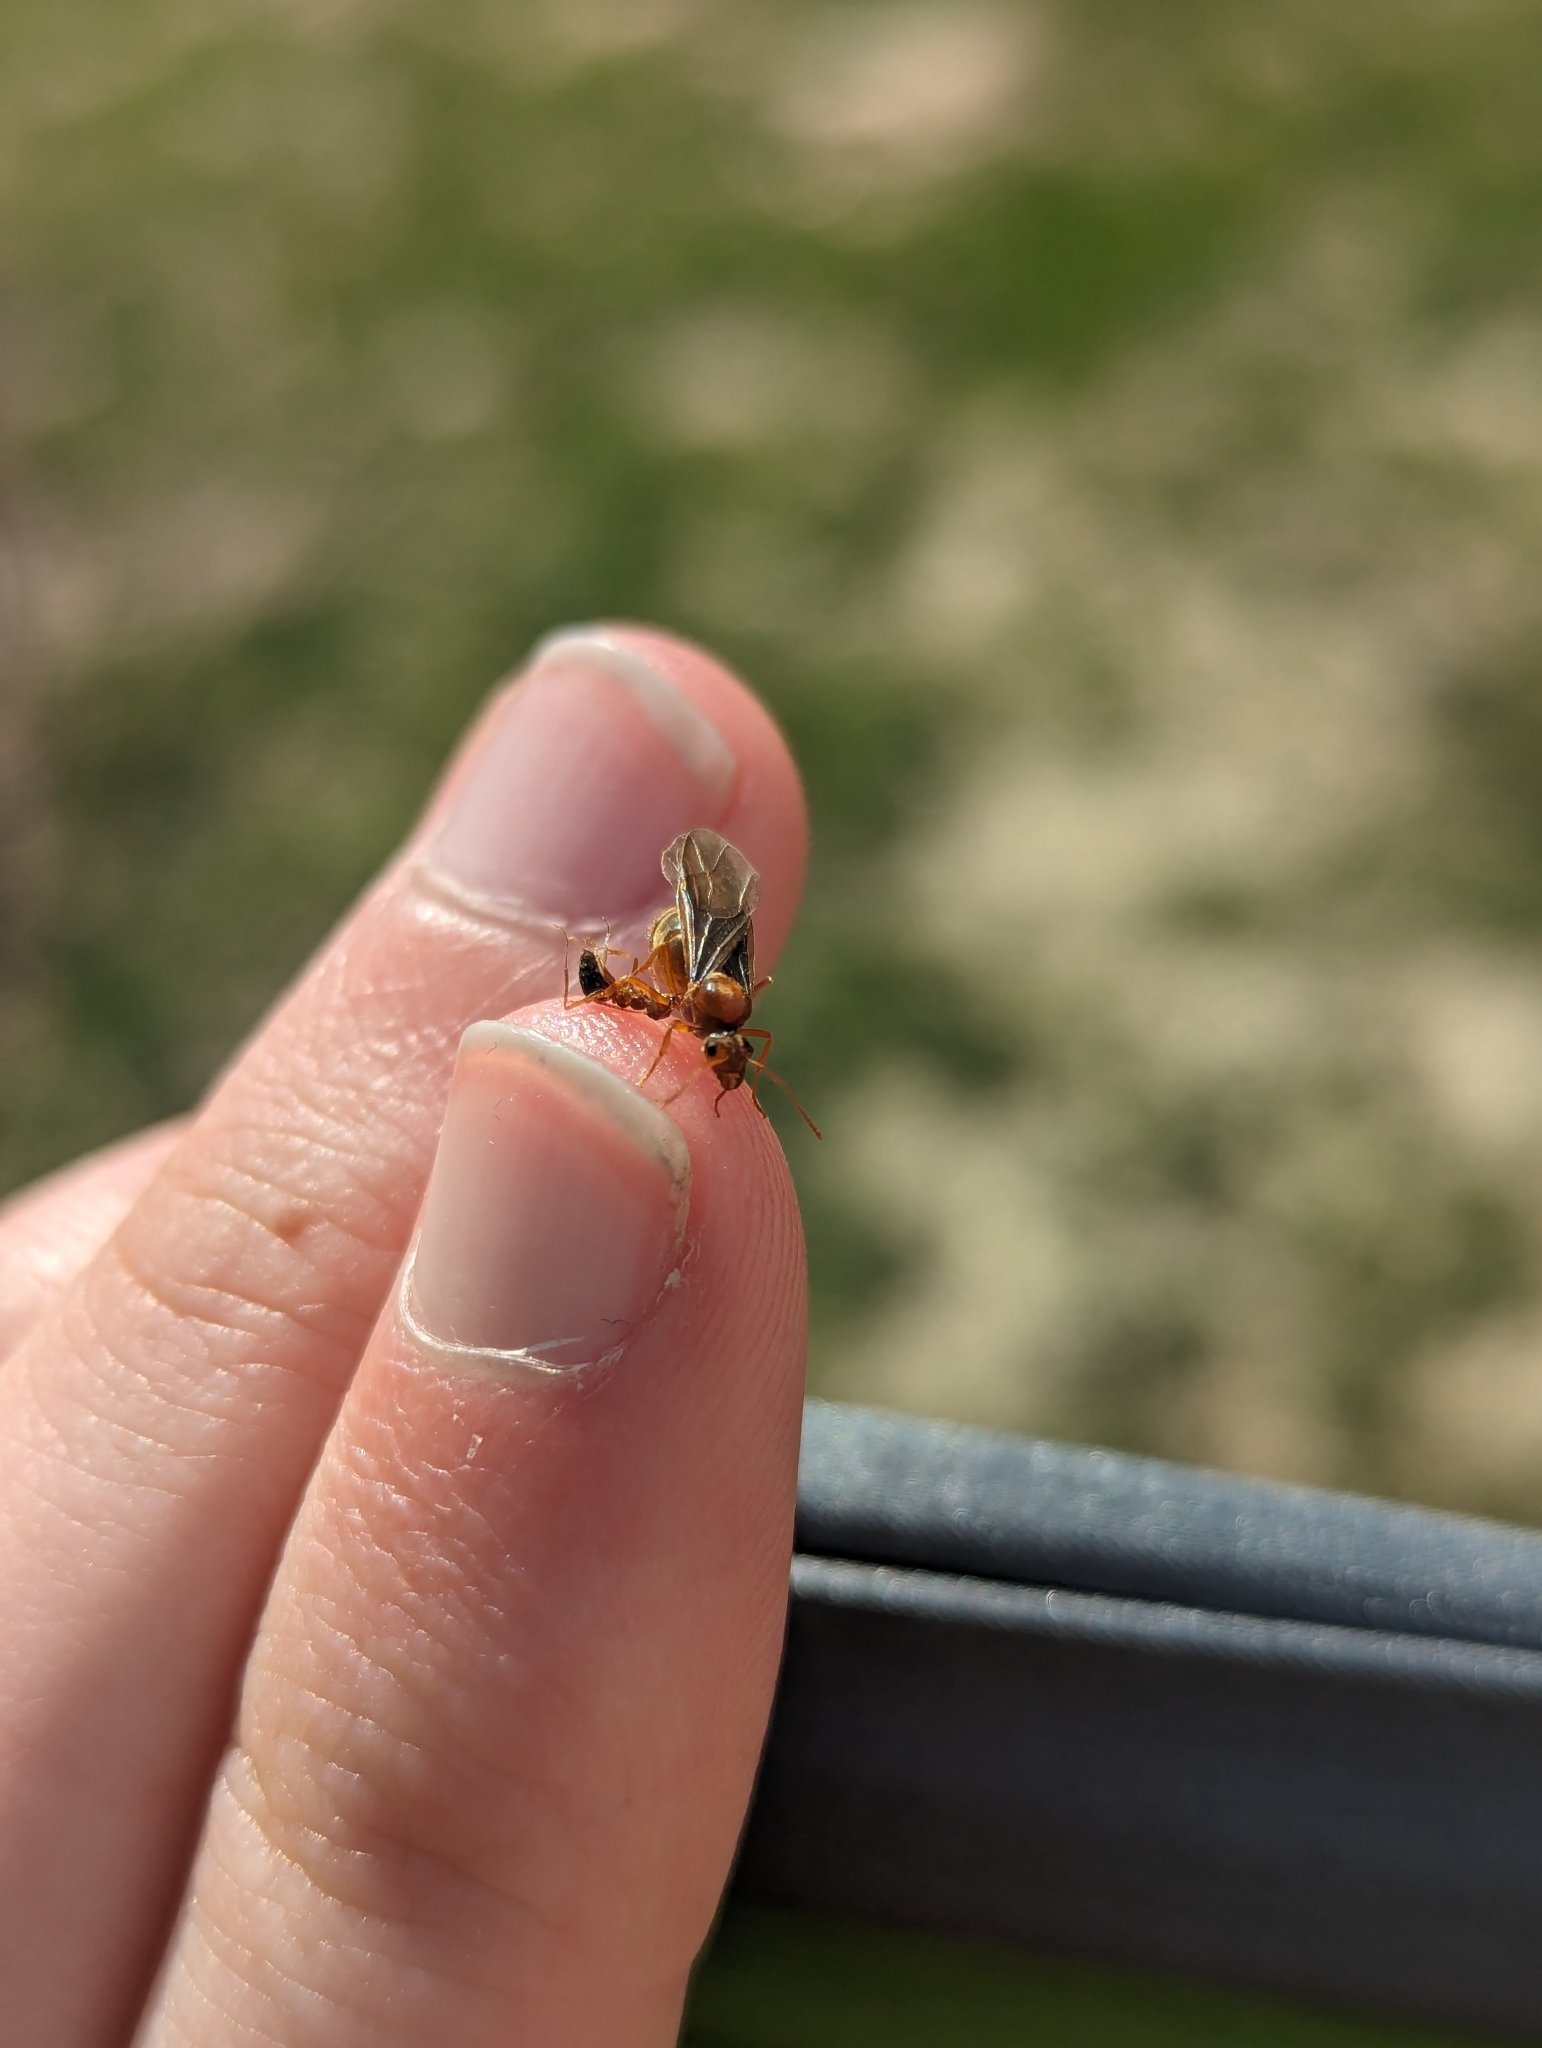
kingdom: Animalia
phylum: Arthropoda
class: Insecta
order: Hymenoptera
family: Formicidae
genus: Prenolepis
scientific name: Prenolepis imparis
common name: Small honey ant
